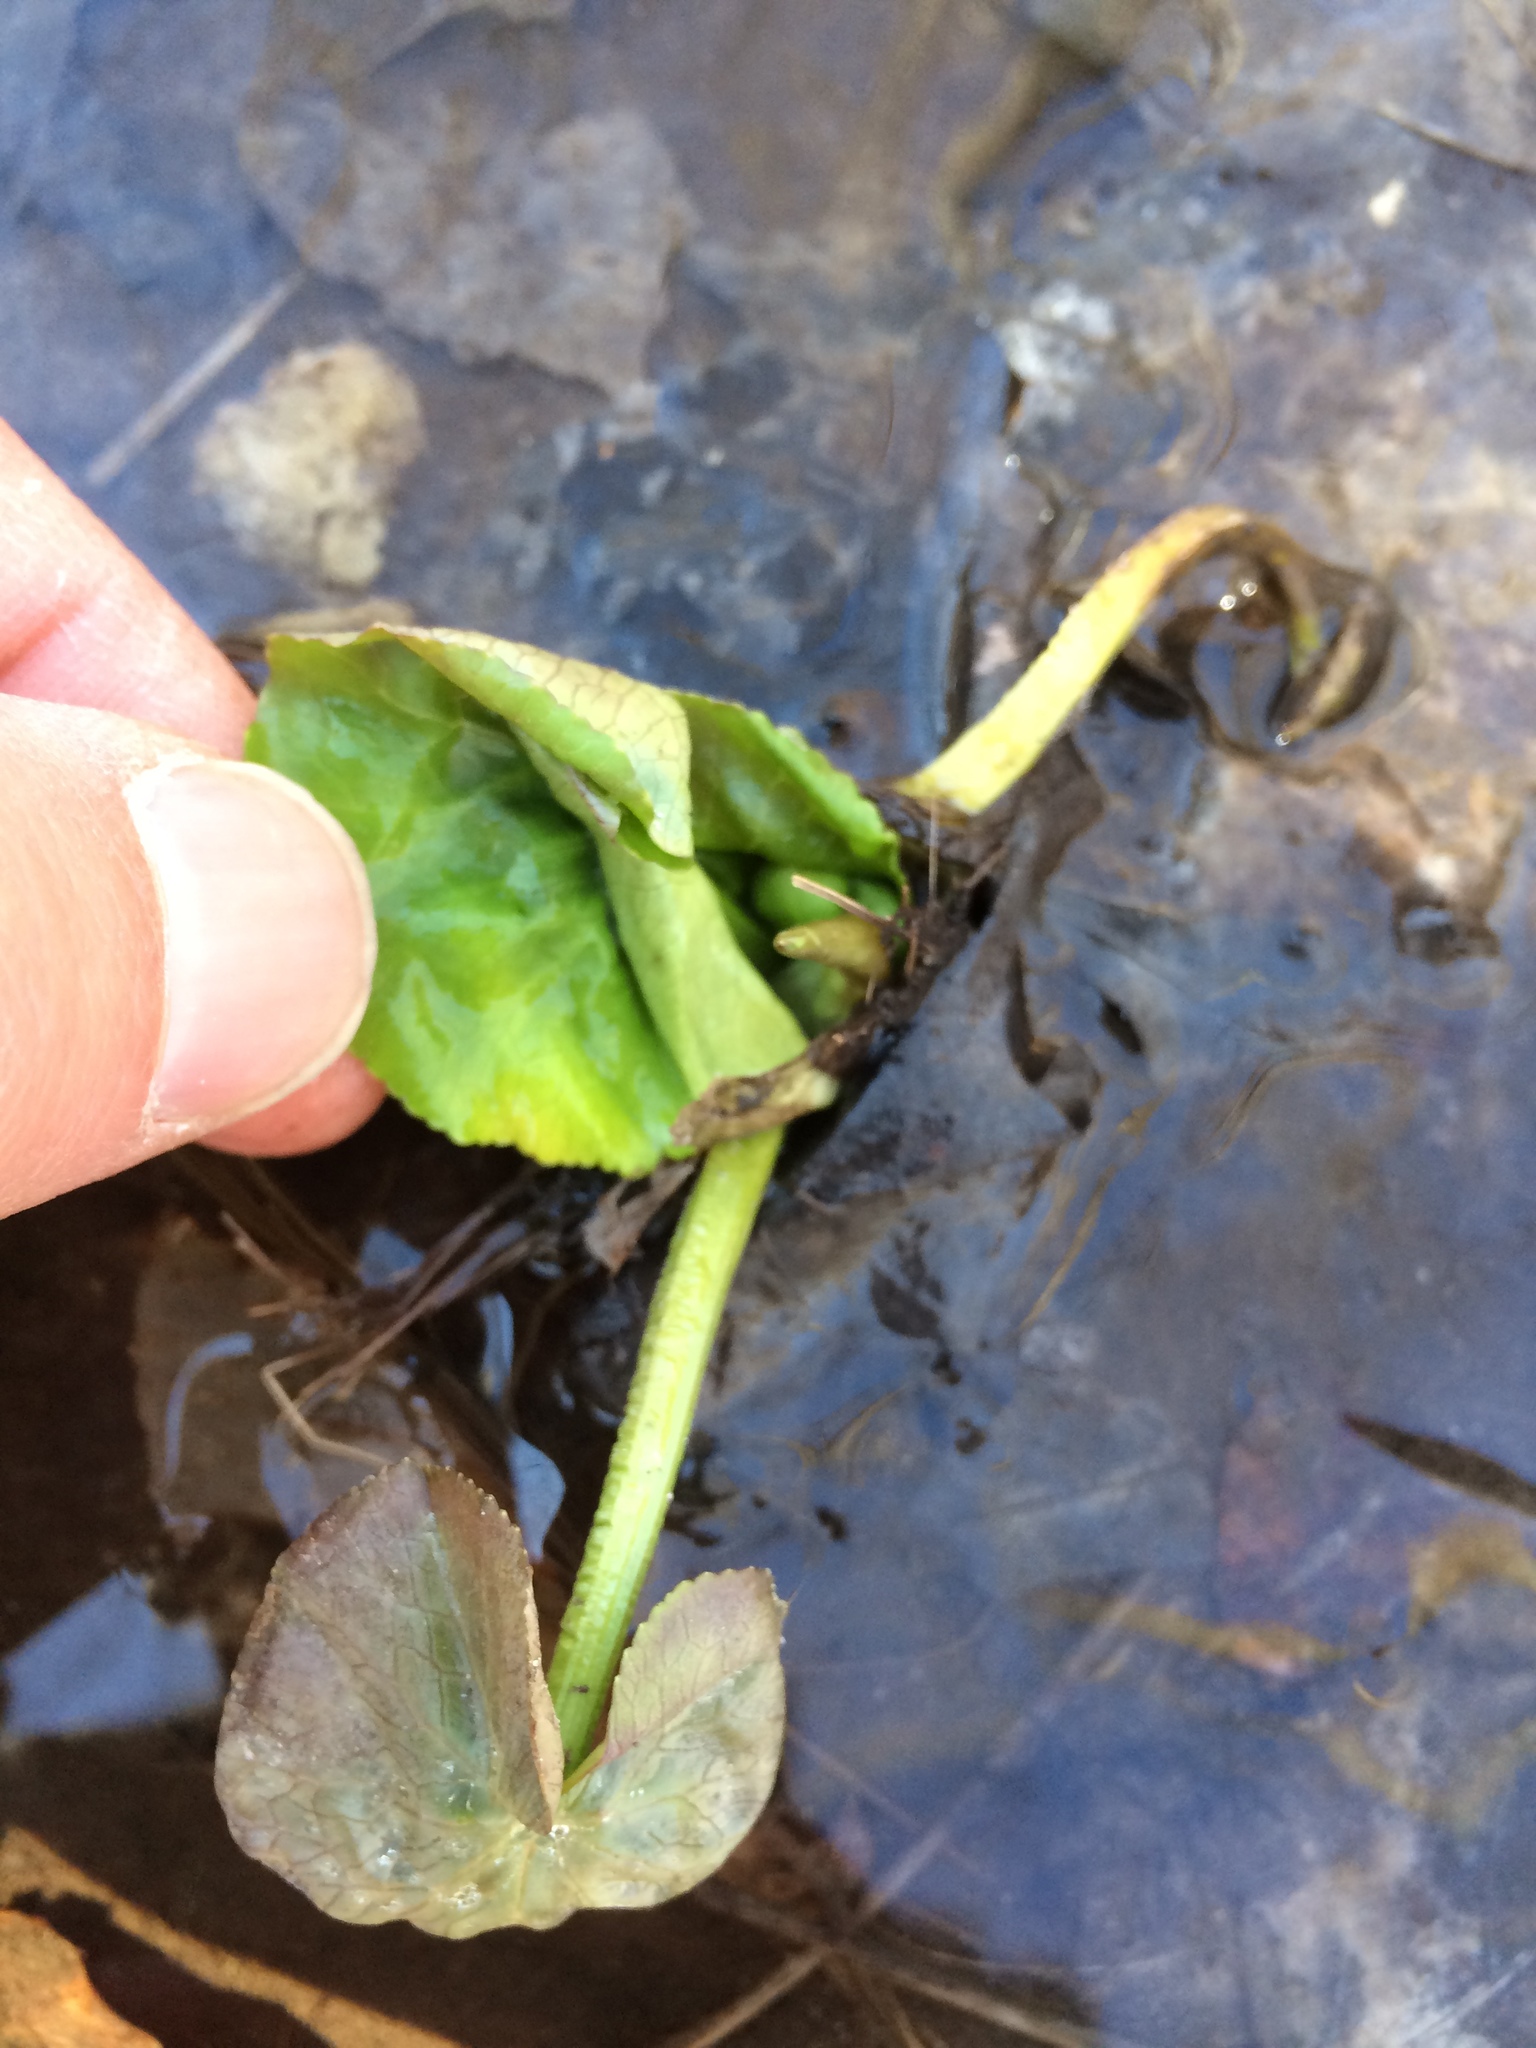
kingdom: Plantae
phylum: Tracheophyta
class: Magnoliopsida
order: Ranunculales
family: Ranunculaceae
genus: Caltha
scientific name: Caltha palustris
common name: Marsh marigold
